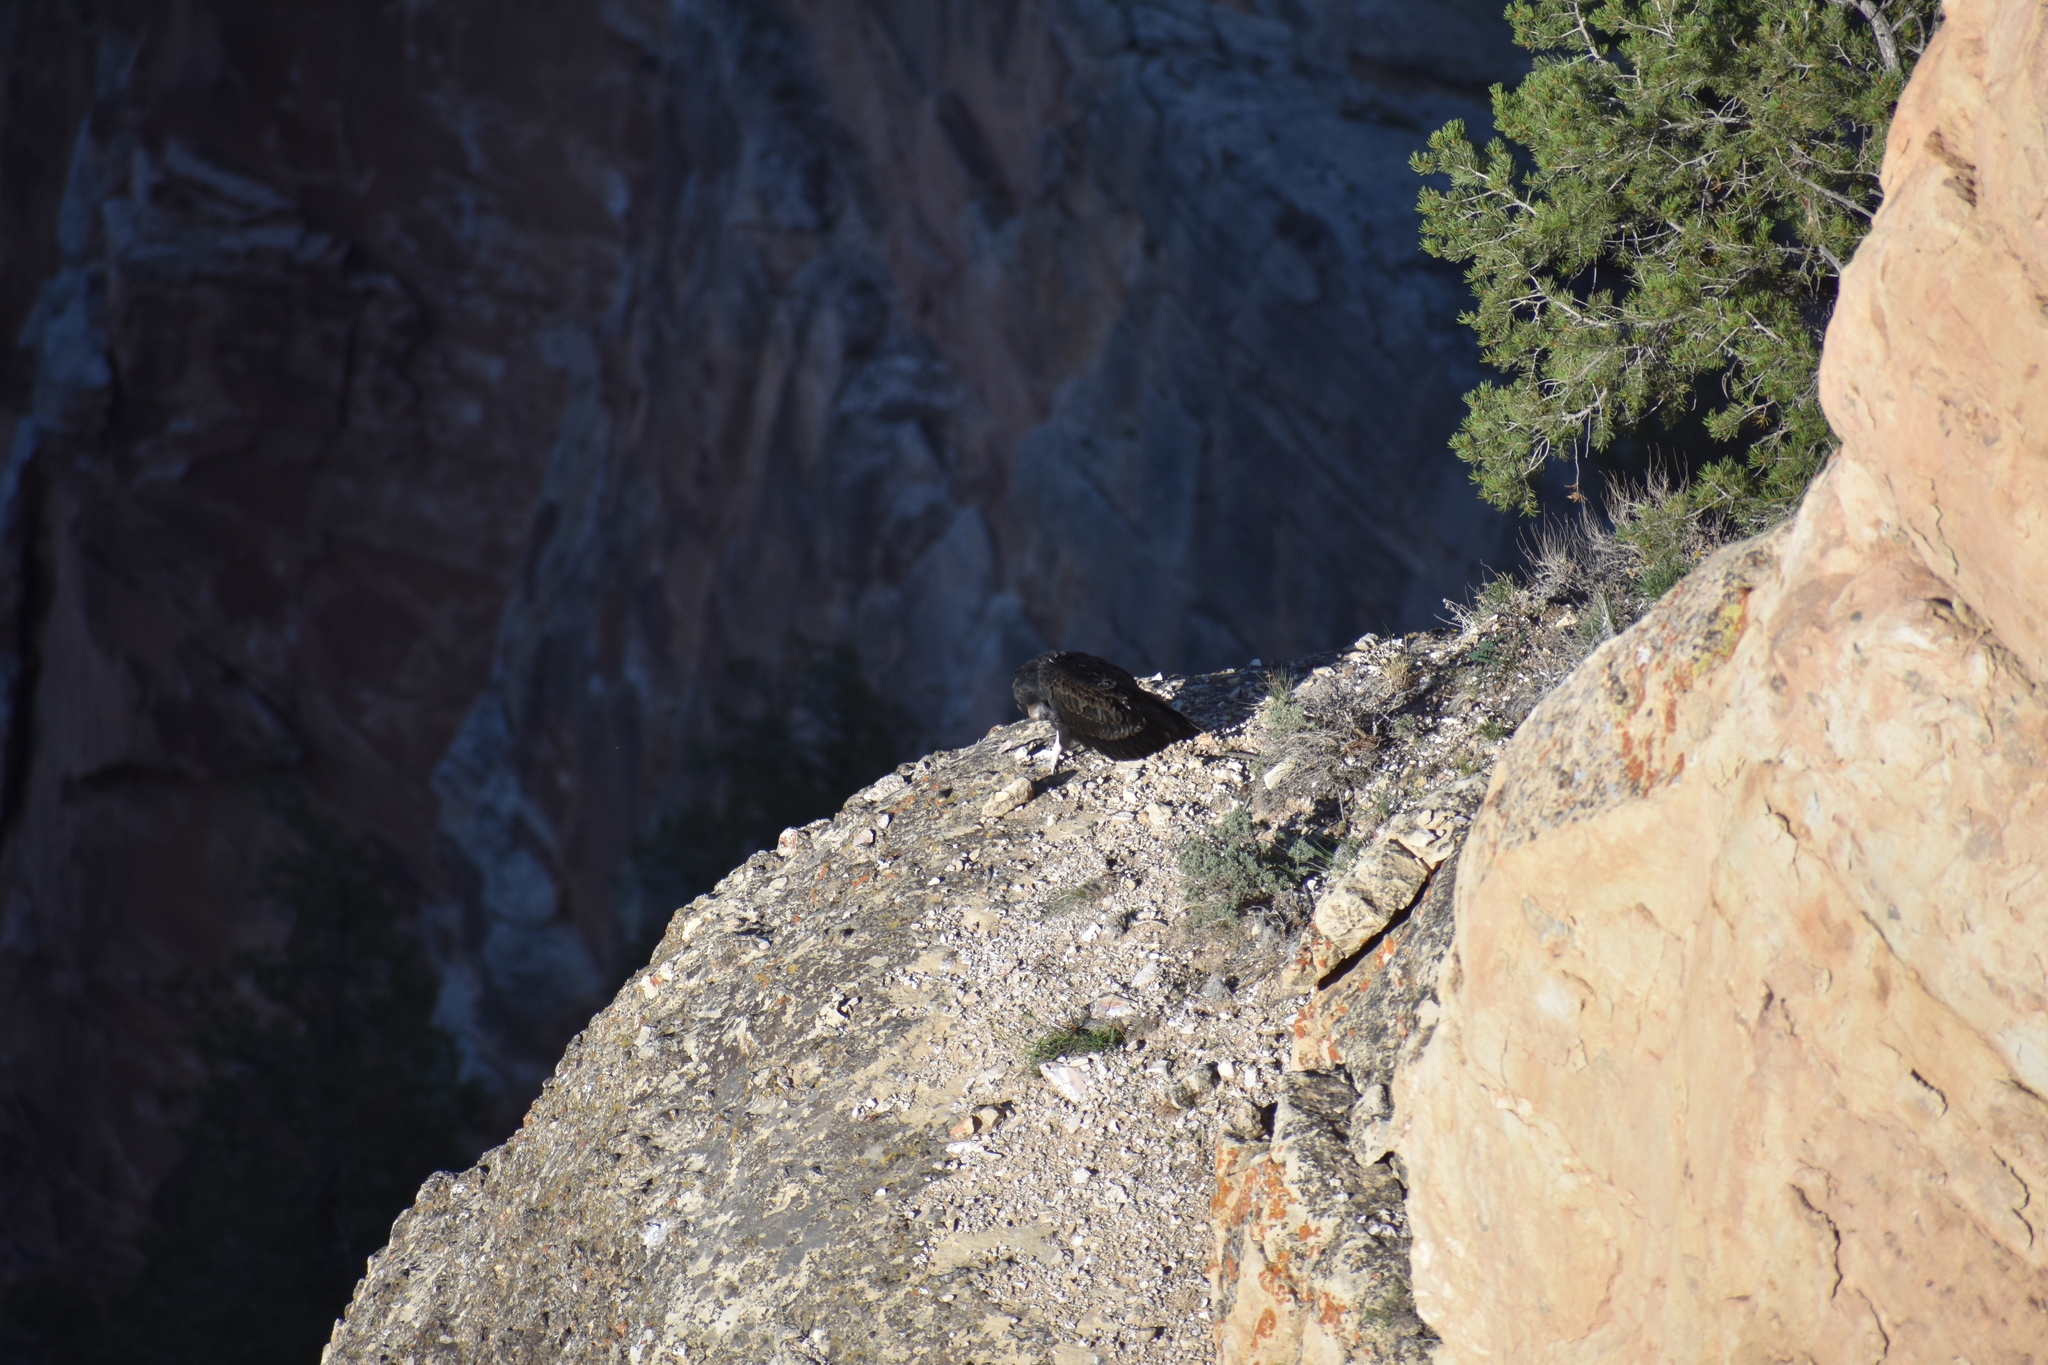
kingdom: Animalia
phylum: Chordata
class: Aves
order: Accipitriformes
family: Cathartidae
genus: Cathartes
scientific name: Cathartes aura
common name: Turkey vulture
